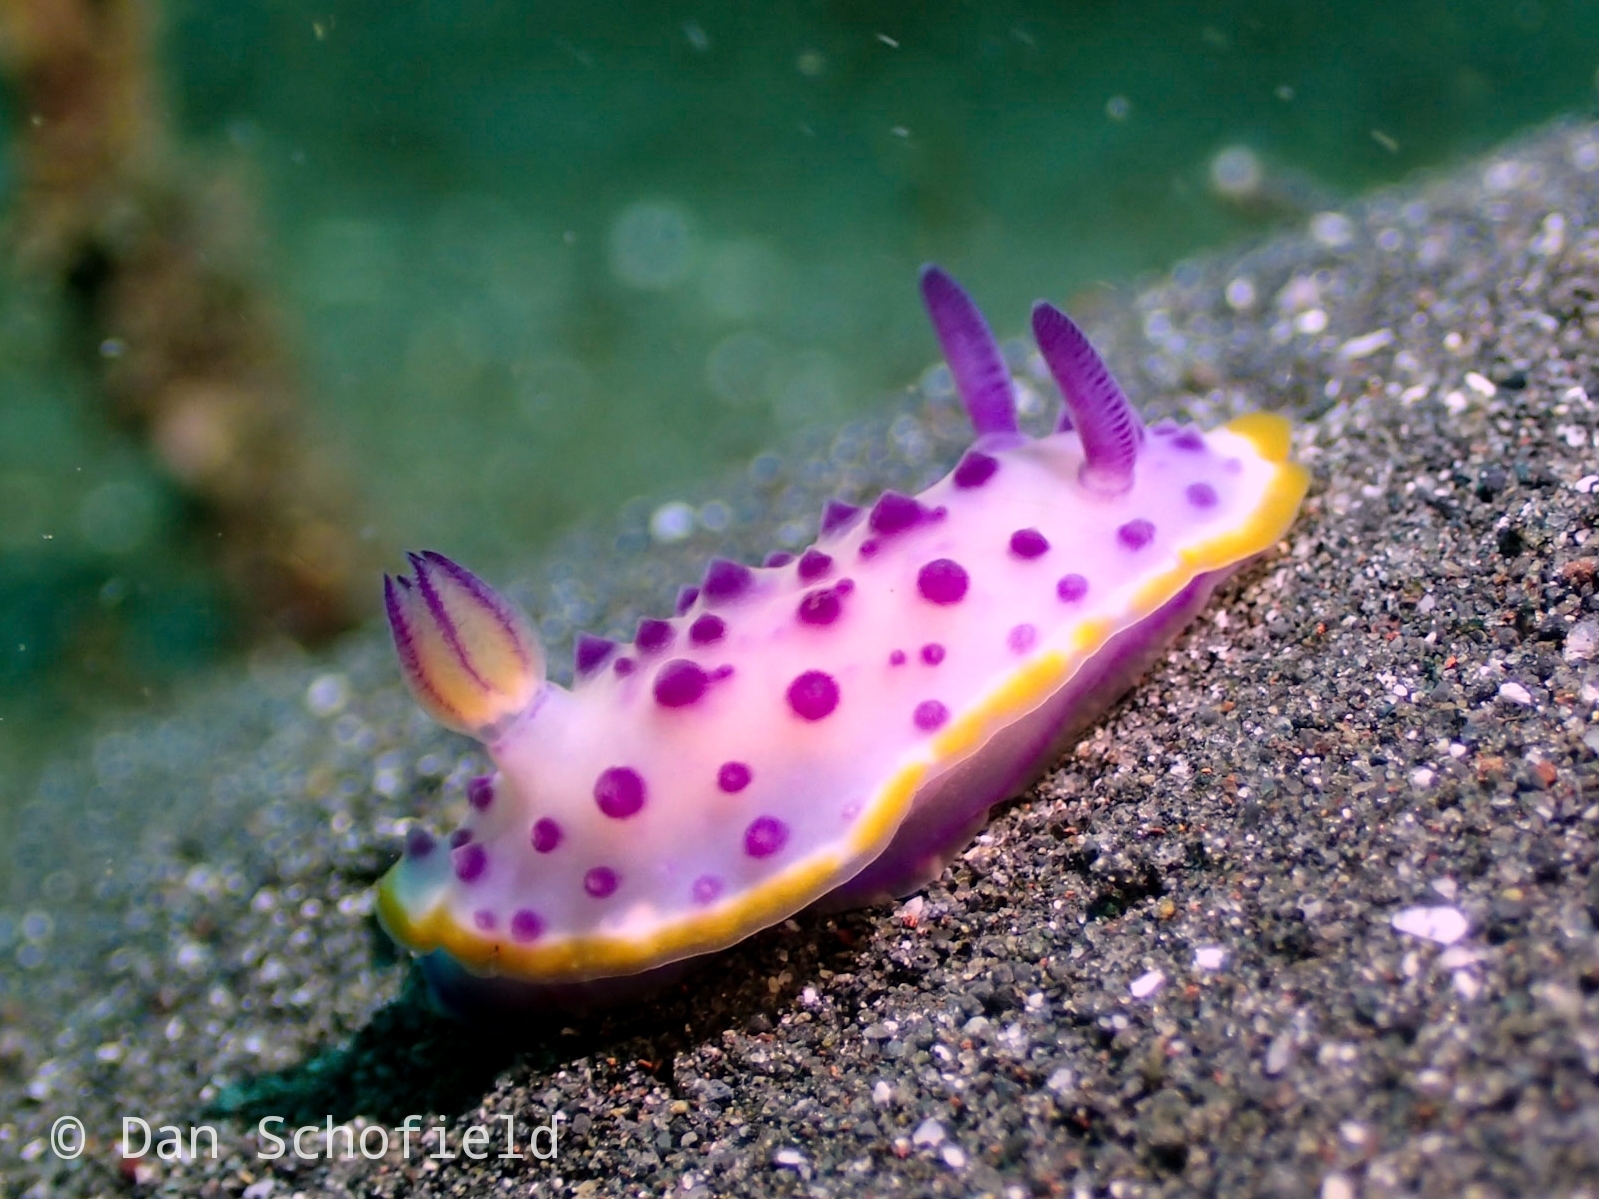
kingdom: Animalia
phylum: Mollusca
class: Gastropoda
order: Nudibranchia
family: Chromodorididae
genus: Mexichromis
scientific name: Mexichromis mariei
